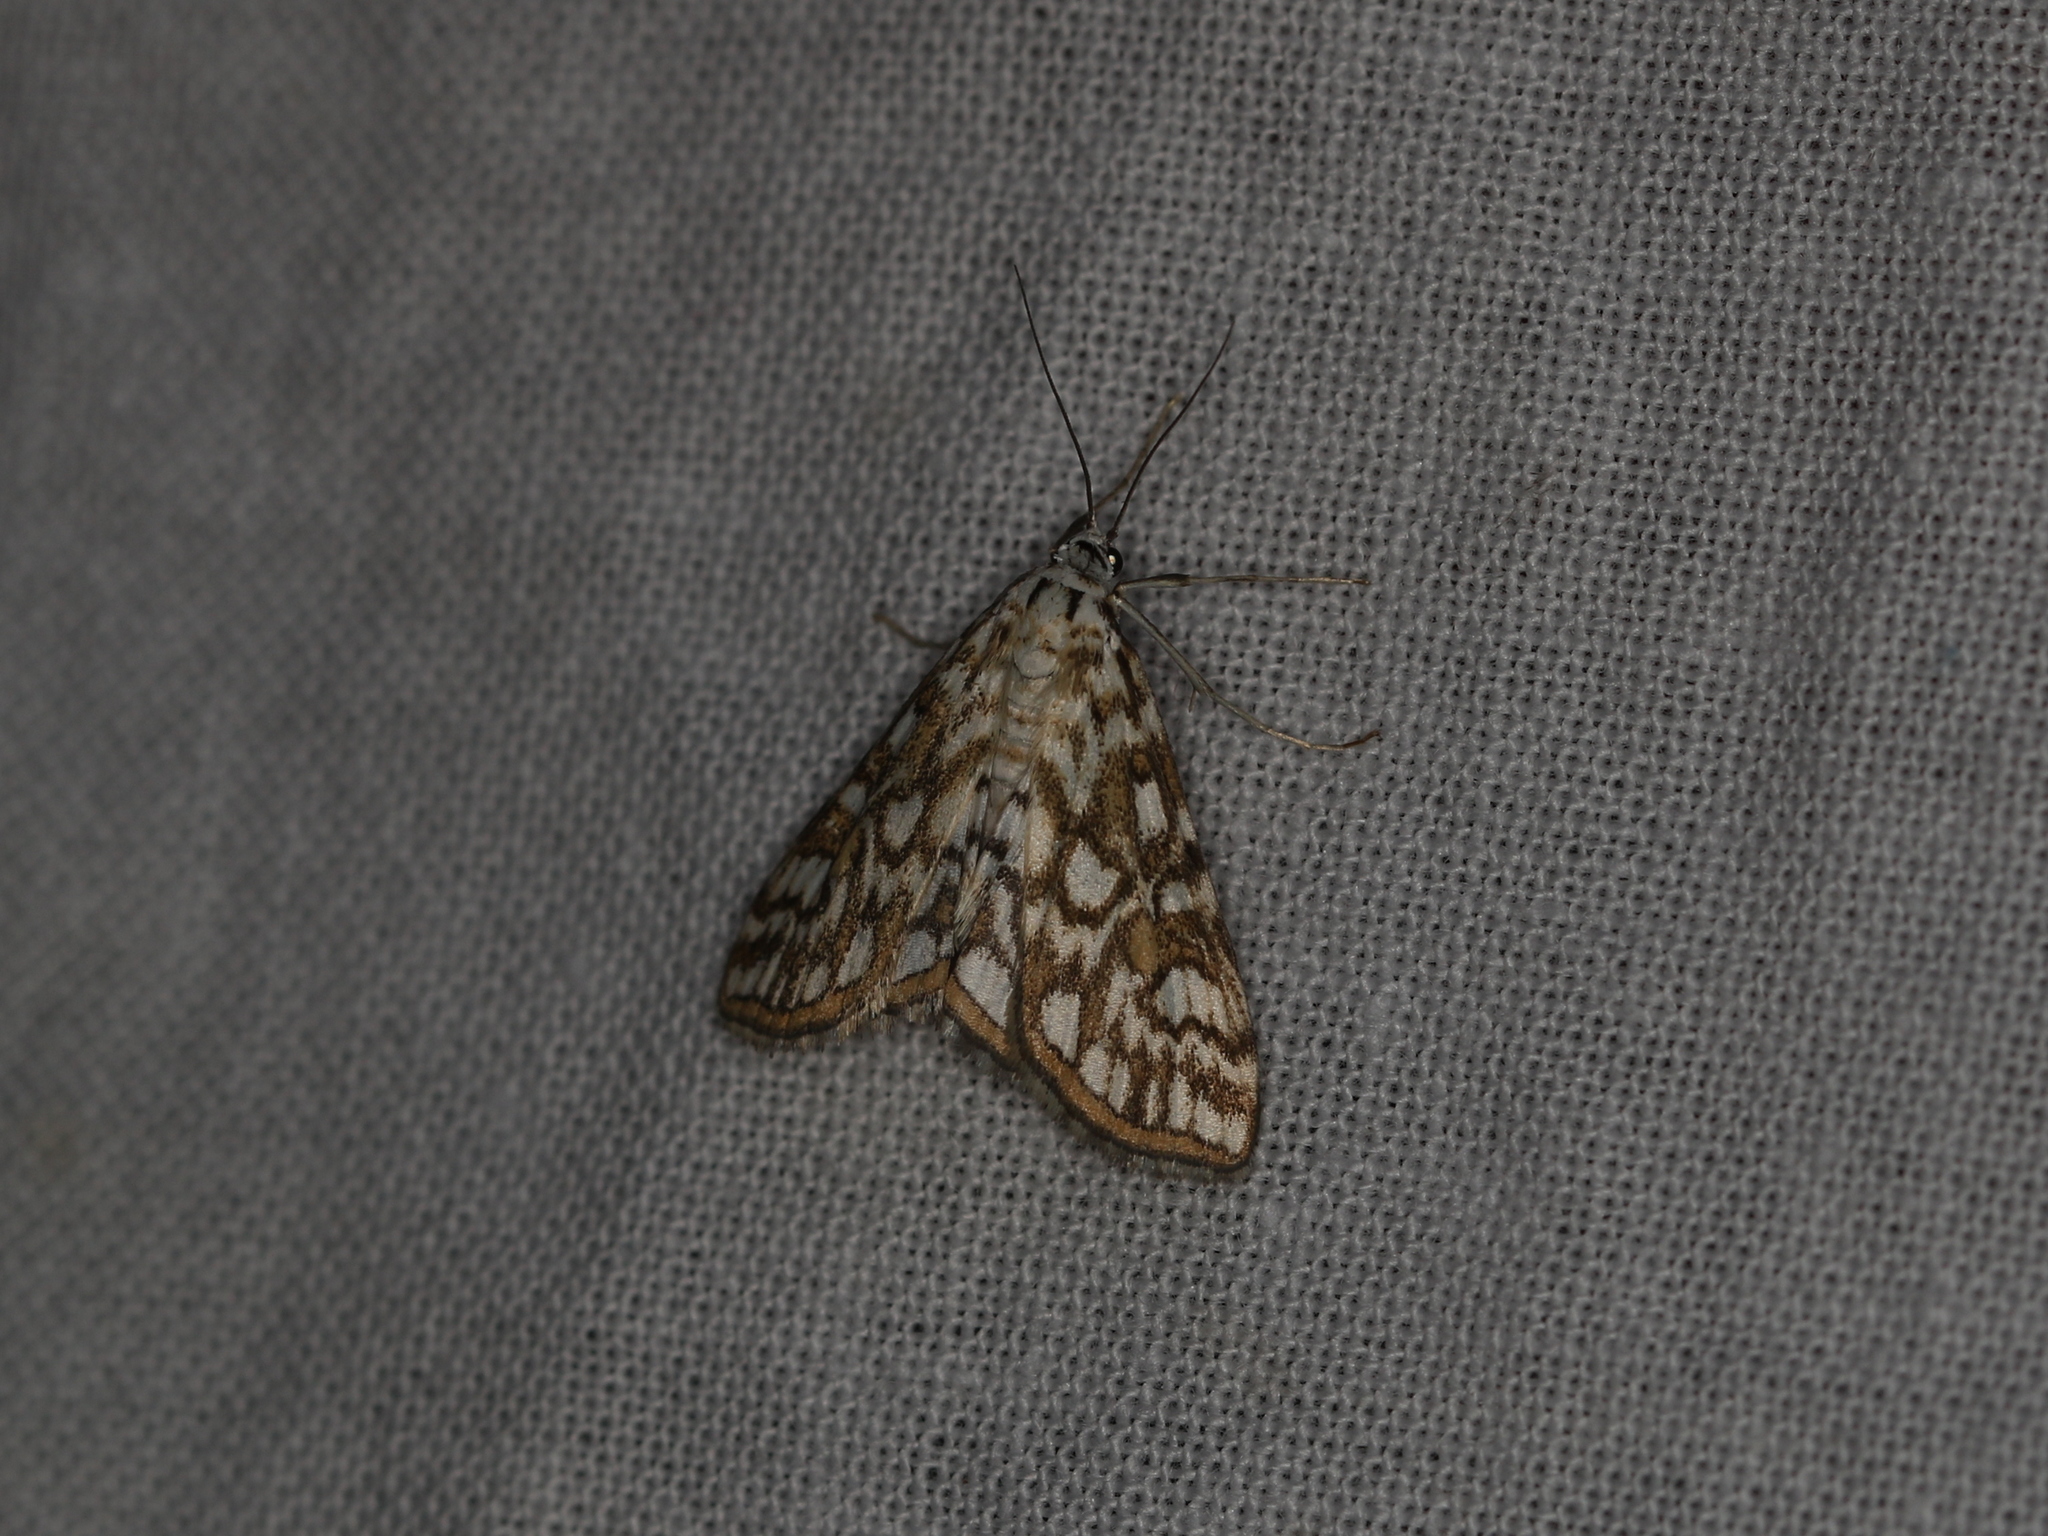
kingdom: Animalia
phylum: Arthropoda
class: Insecta
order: Lepidoptera
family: Crambidae
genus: Elophila
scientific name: Elophila nymphaeata
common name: Brown china-mark
